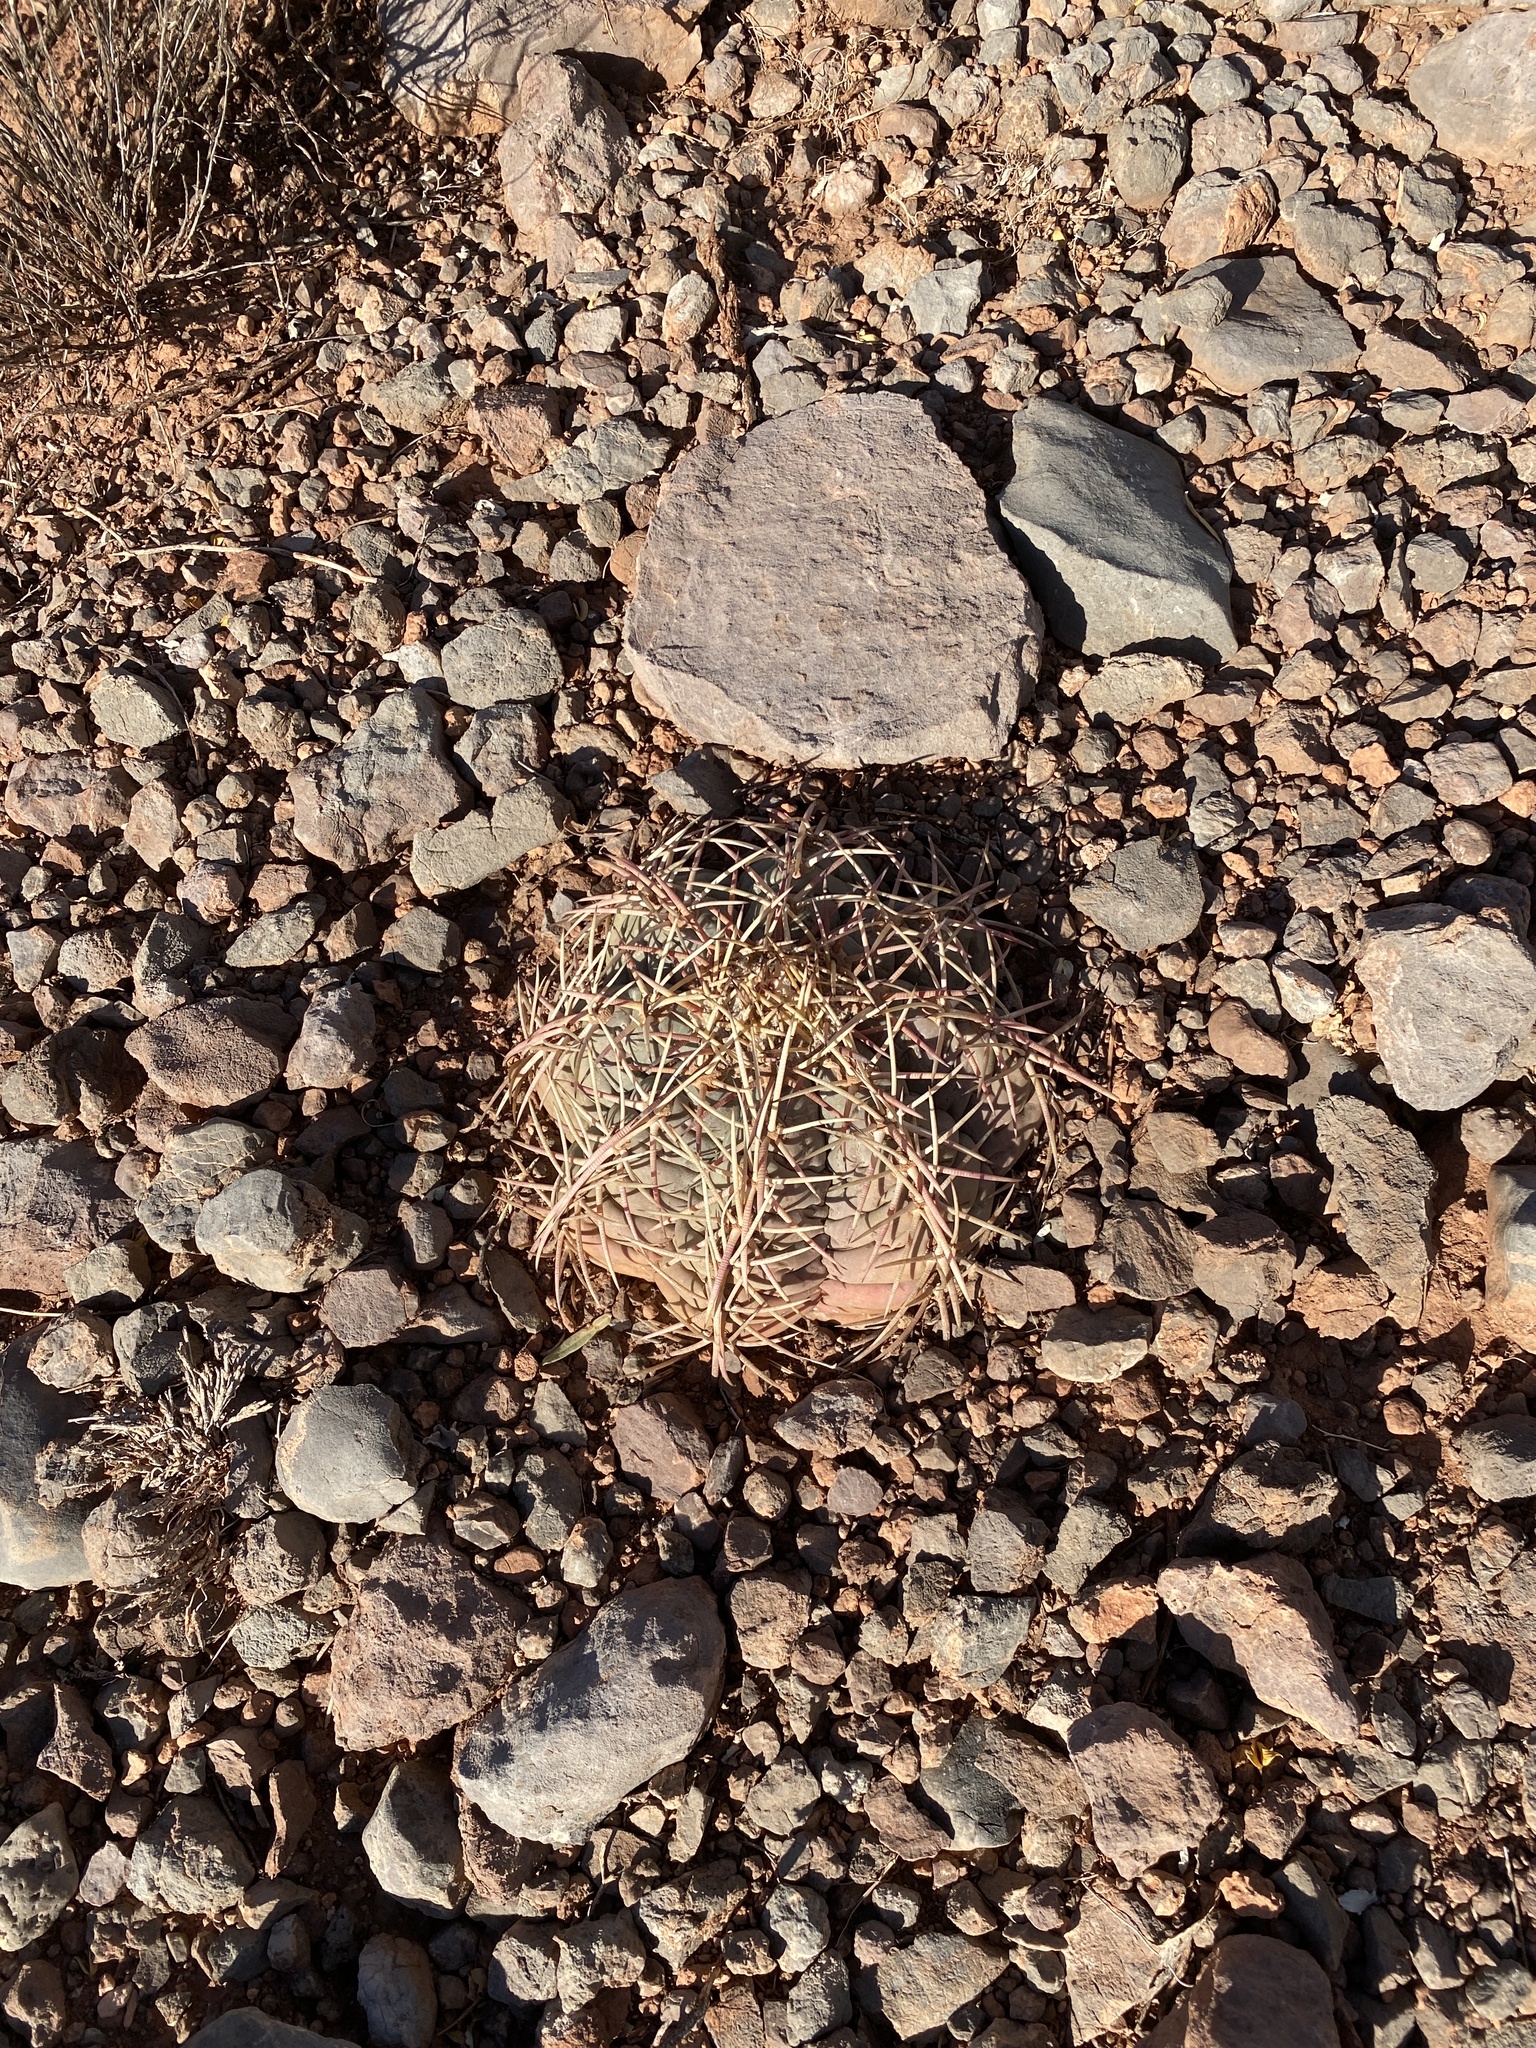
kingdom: Plantae
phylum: Tracheophyta
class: Magnoliopsida
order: Caryophyllales
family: Cactaceae
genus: Echinocactus
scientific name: Echinocactus horizonthalonius
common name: Devilshead
